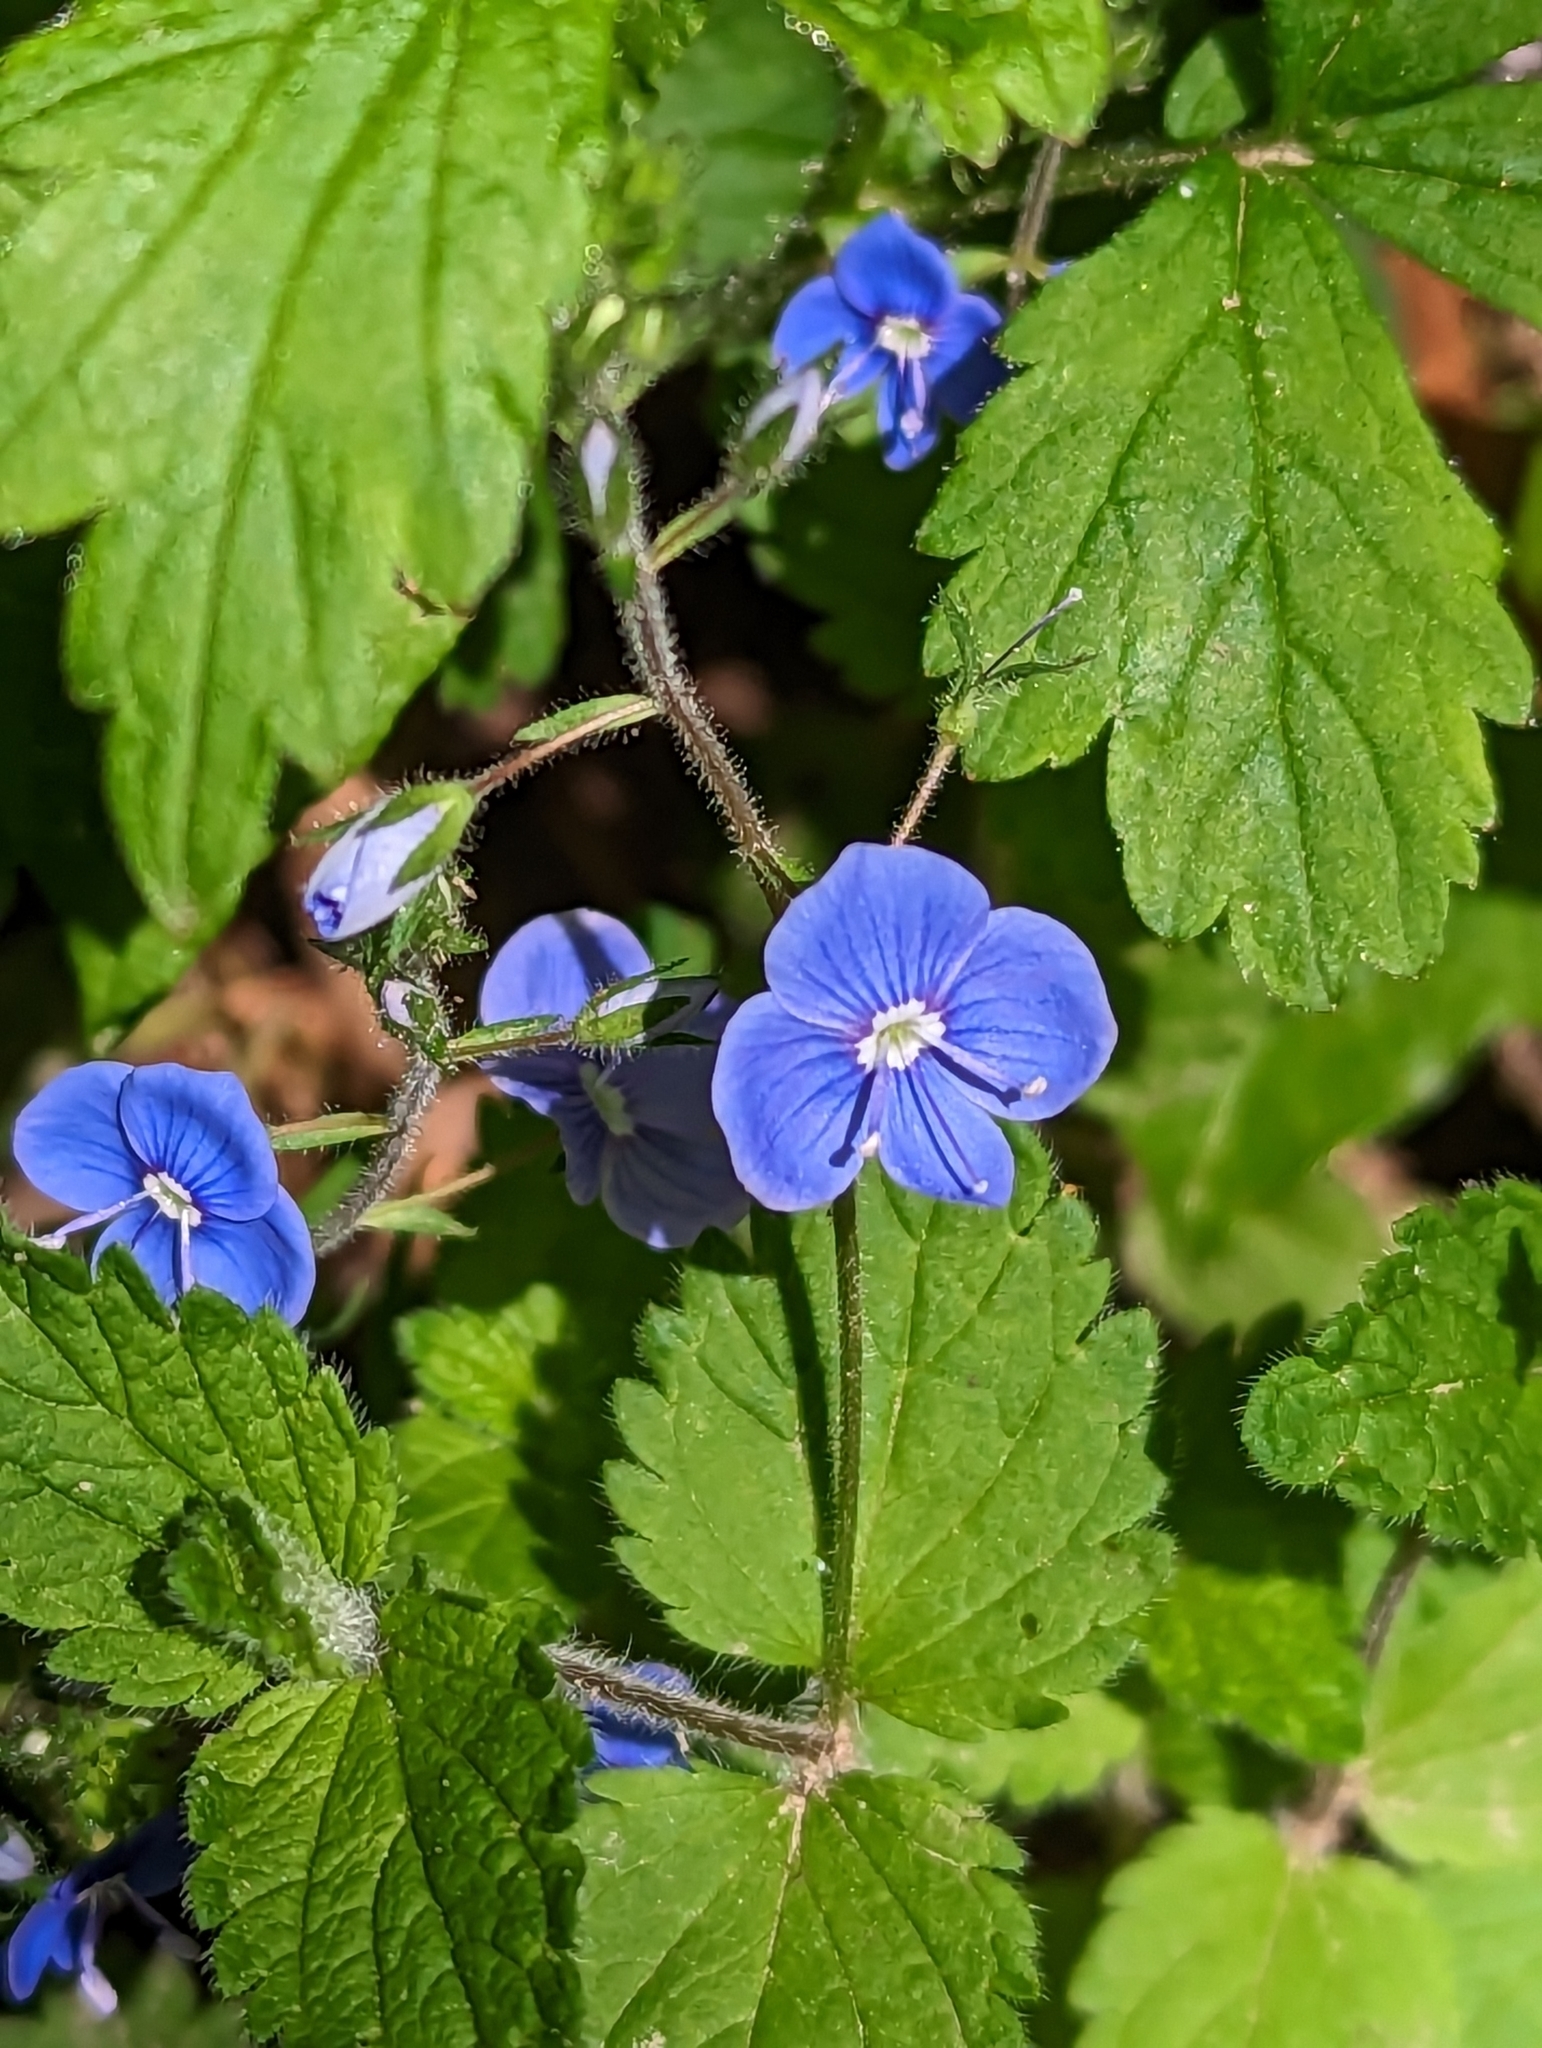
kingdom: Plantae
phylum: Tracheophyta
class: Magnoliopsida
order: Lamiales
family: Plantaginaceae
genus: Veronica
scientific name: Veronica chamaedrys
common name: Germander speedwell
